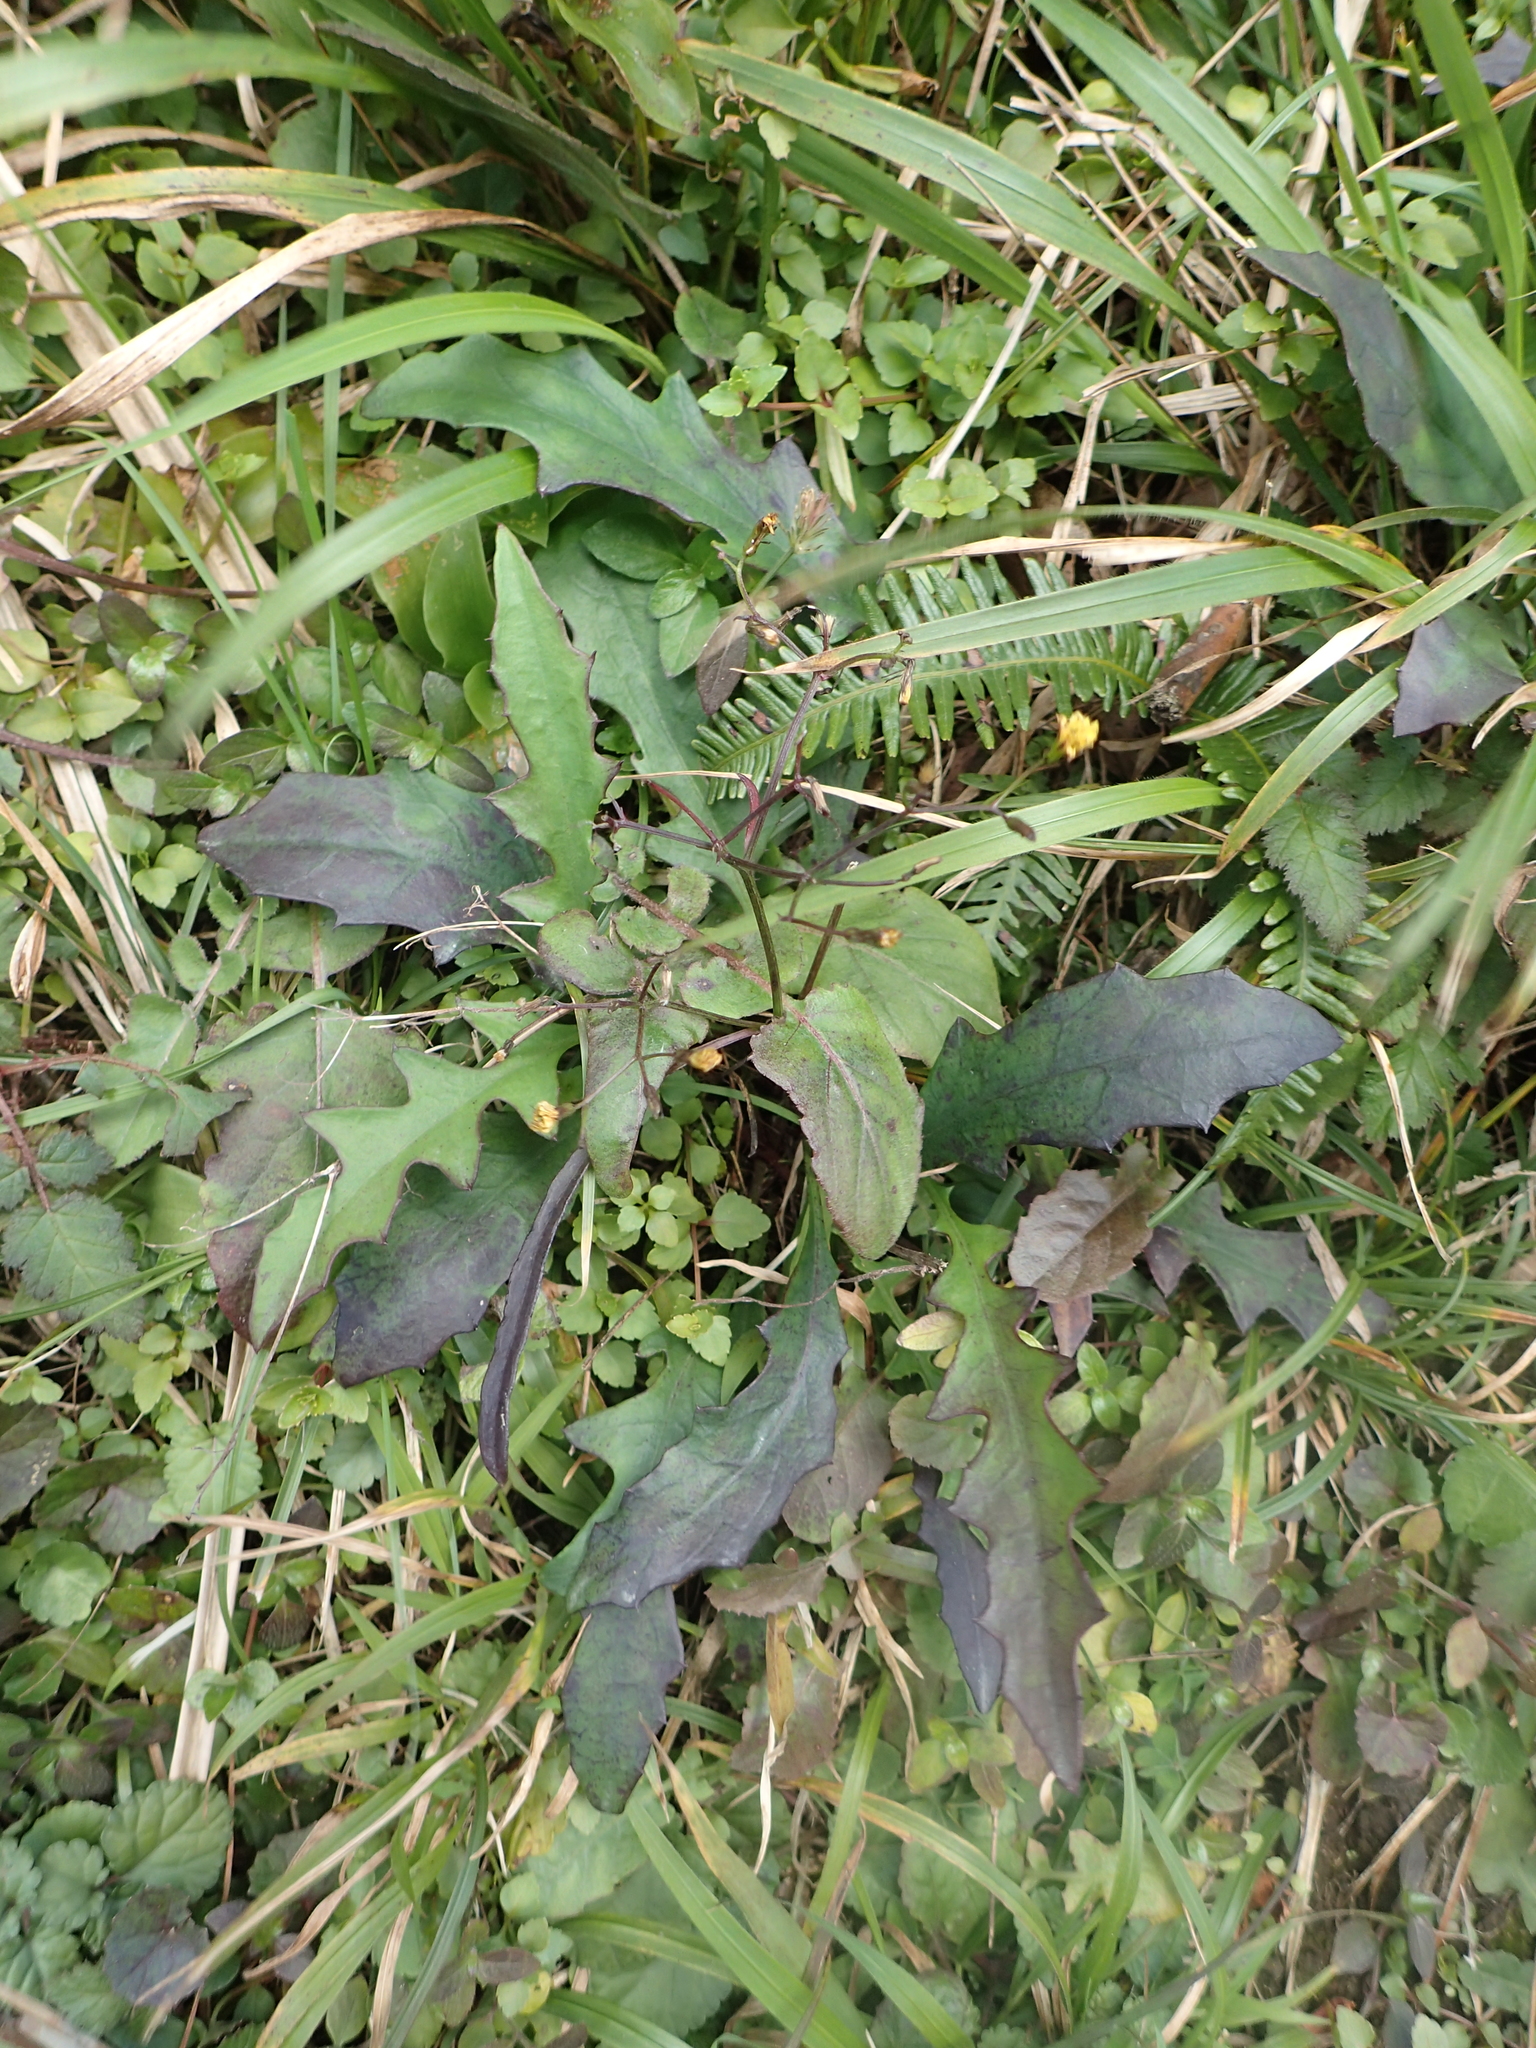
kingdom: Plantae
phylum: Tracheophyta
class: Magnoliopsida
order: Asterales
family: Asteraceae
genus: Ixeridium
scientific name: Ixeridium laevigatum
